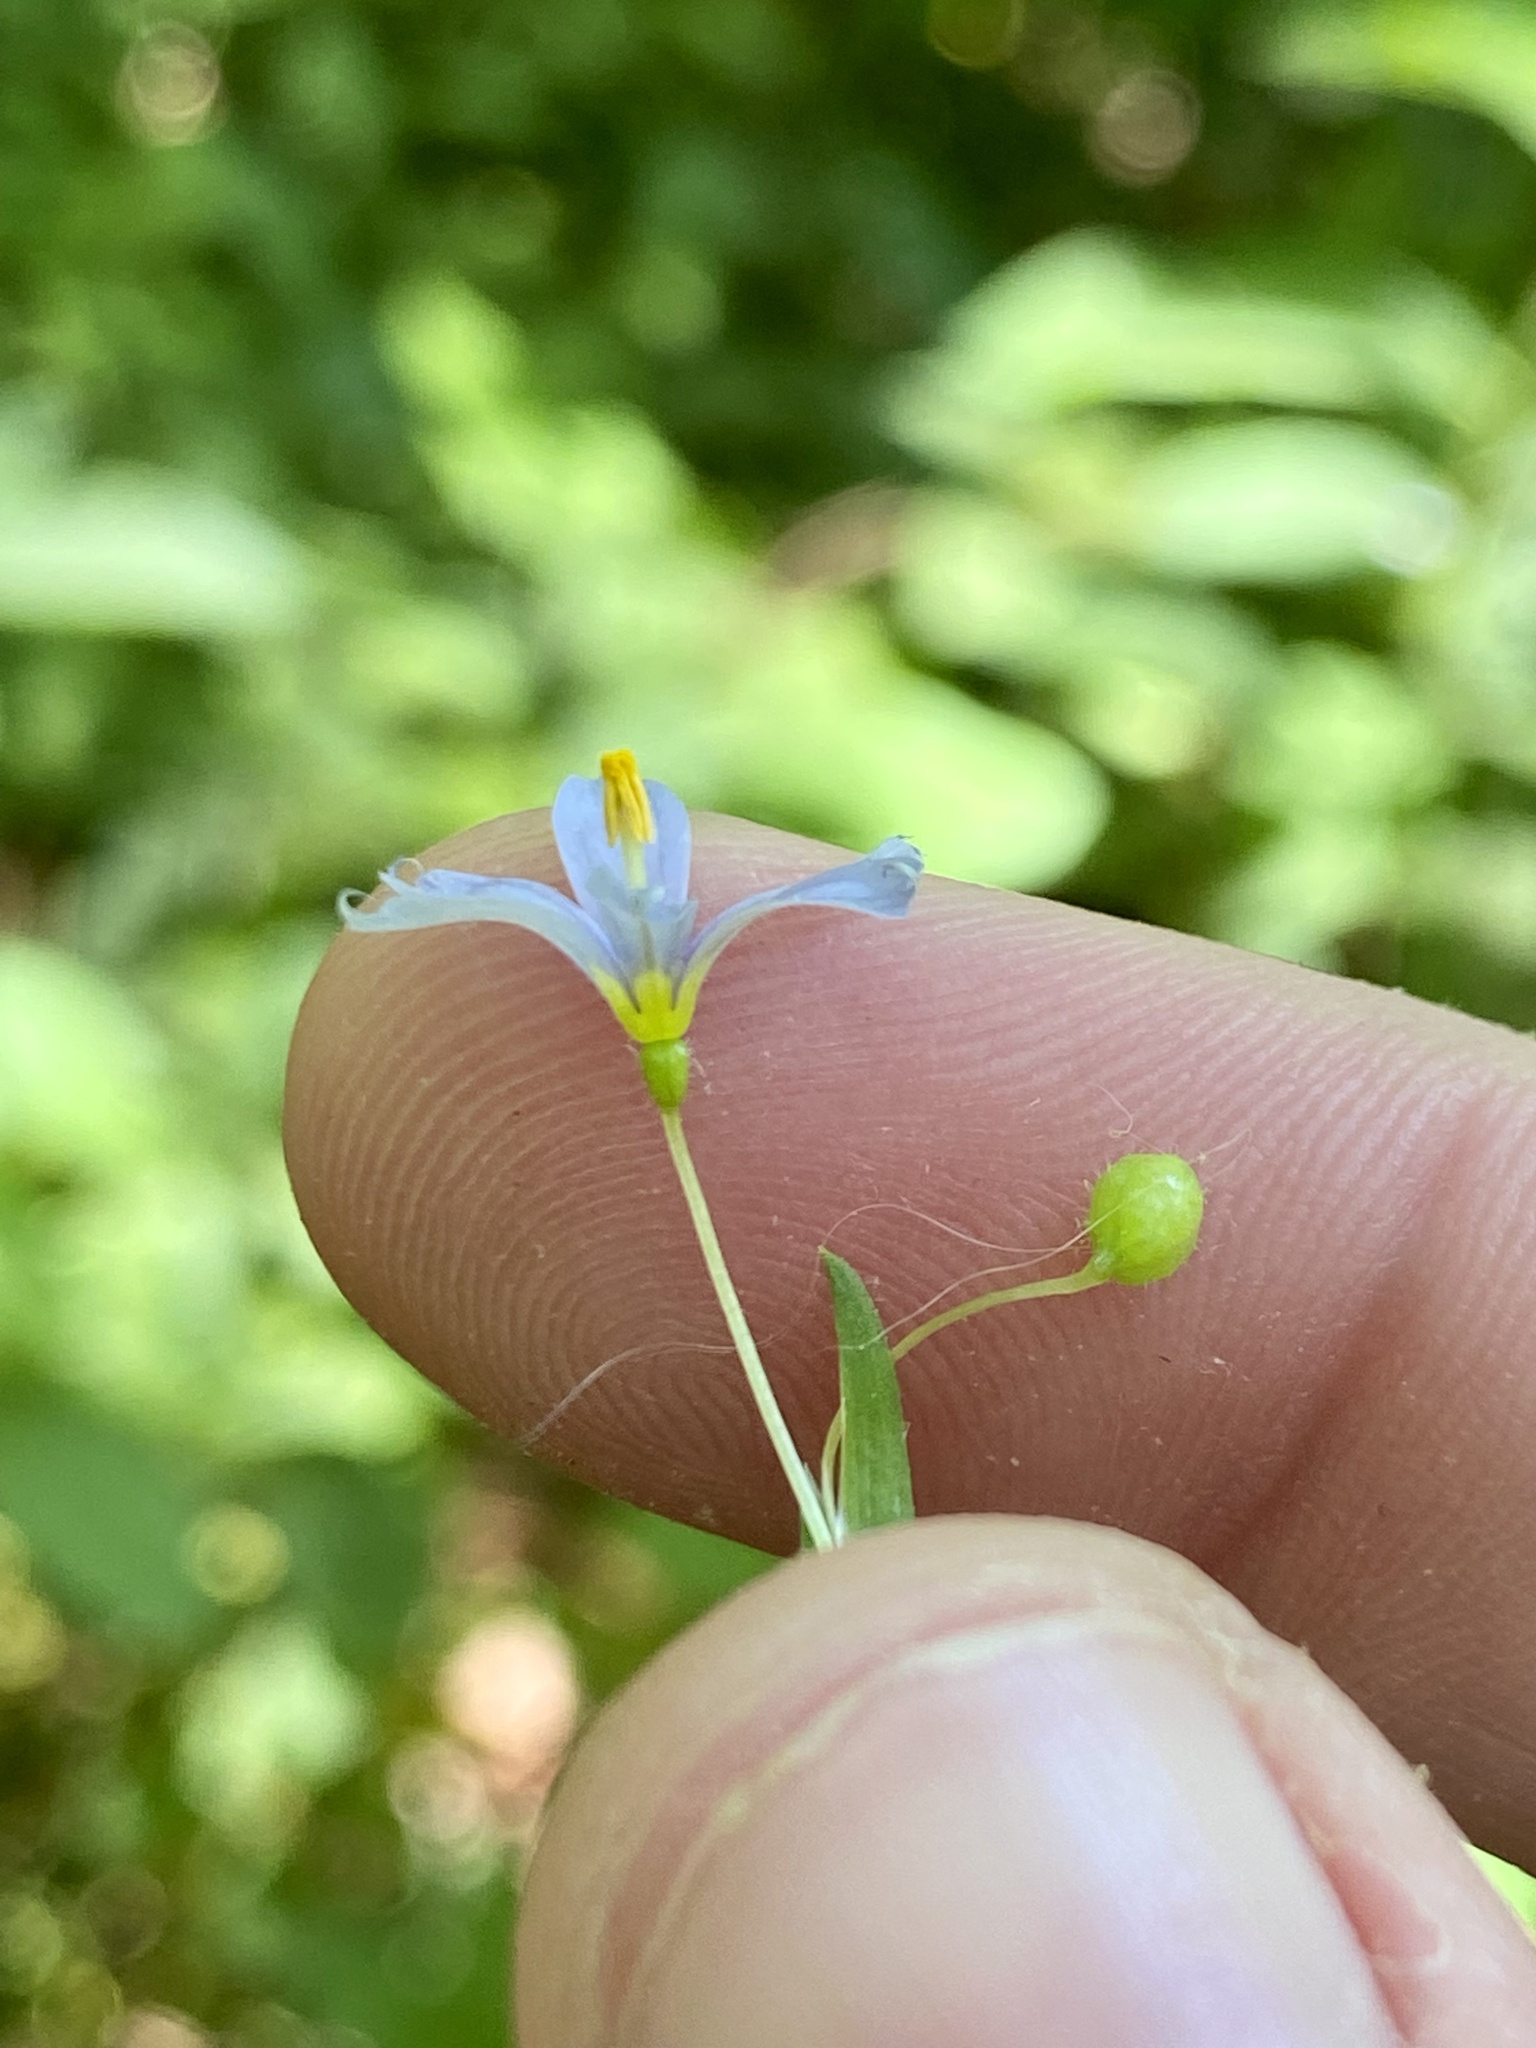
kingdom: Plantae
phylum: Tracheophyta
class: Liliopsida
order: Asparagales
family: Iridaceae
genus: Sisyrinchium
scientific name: Sisyrinchium angustifolium
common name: Narrow-leaf blue-eyed-grass
